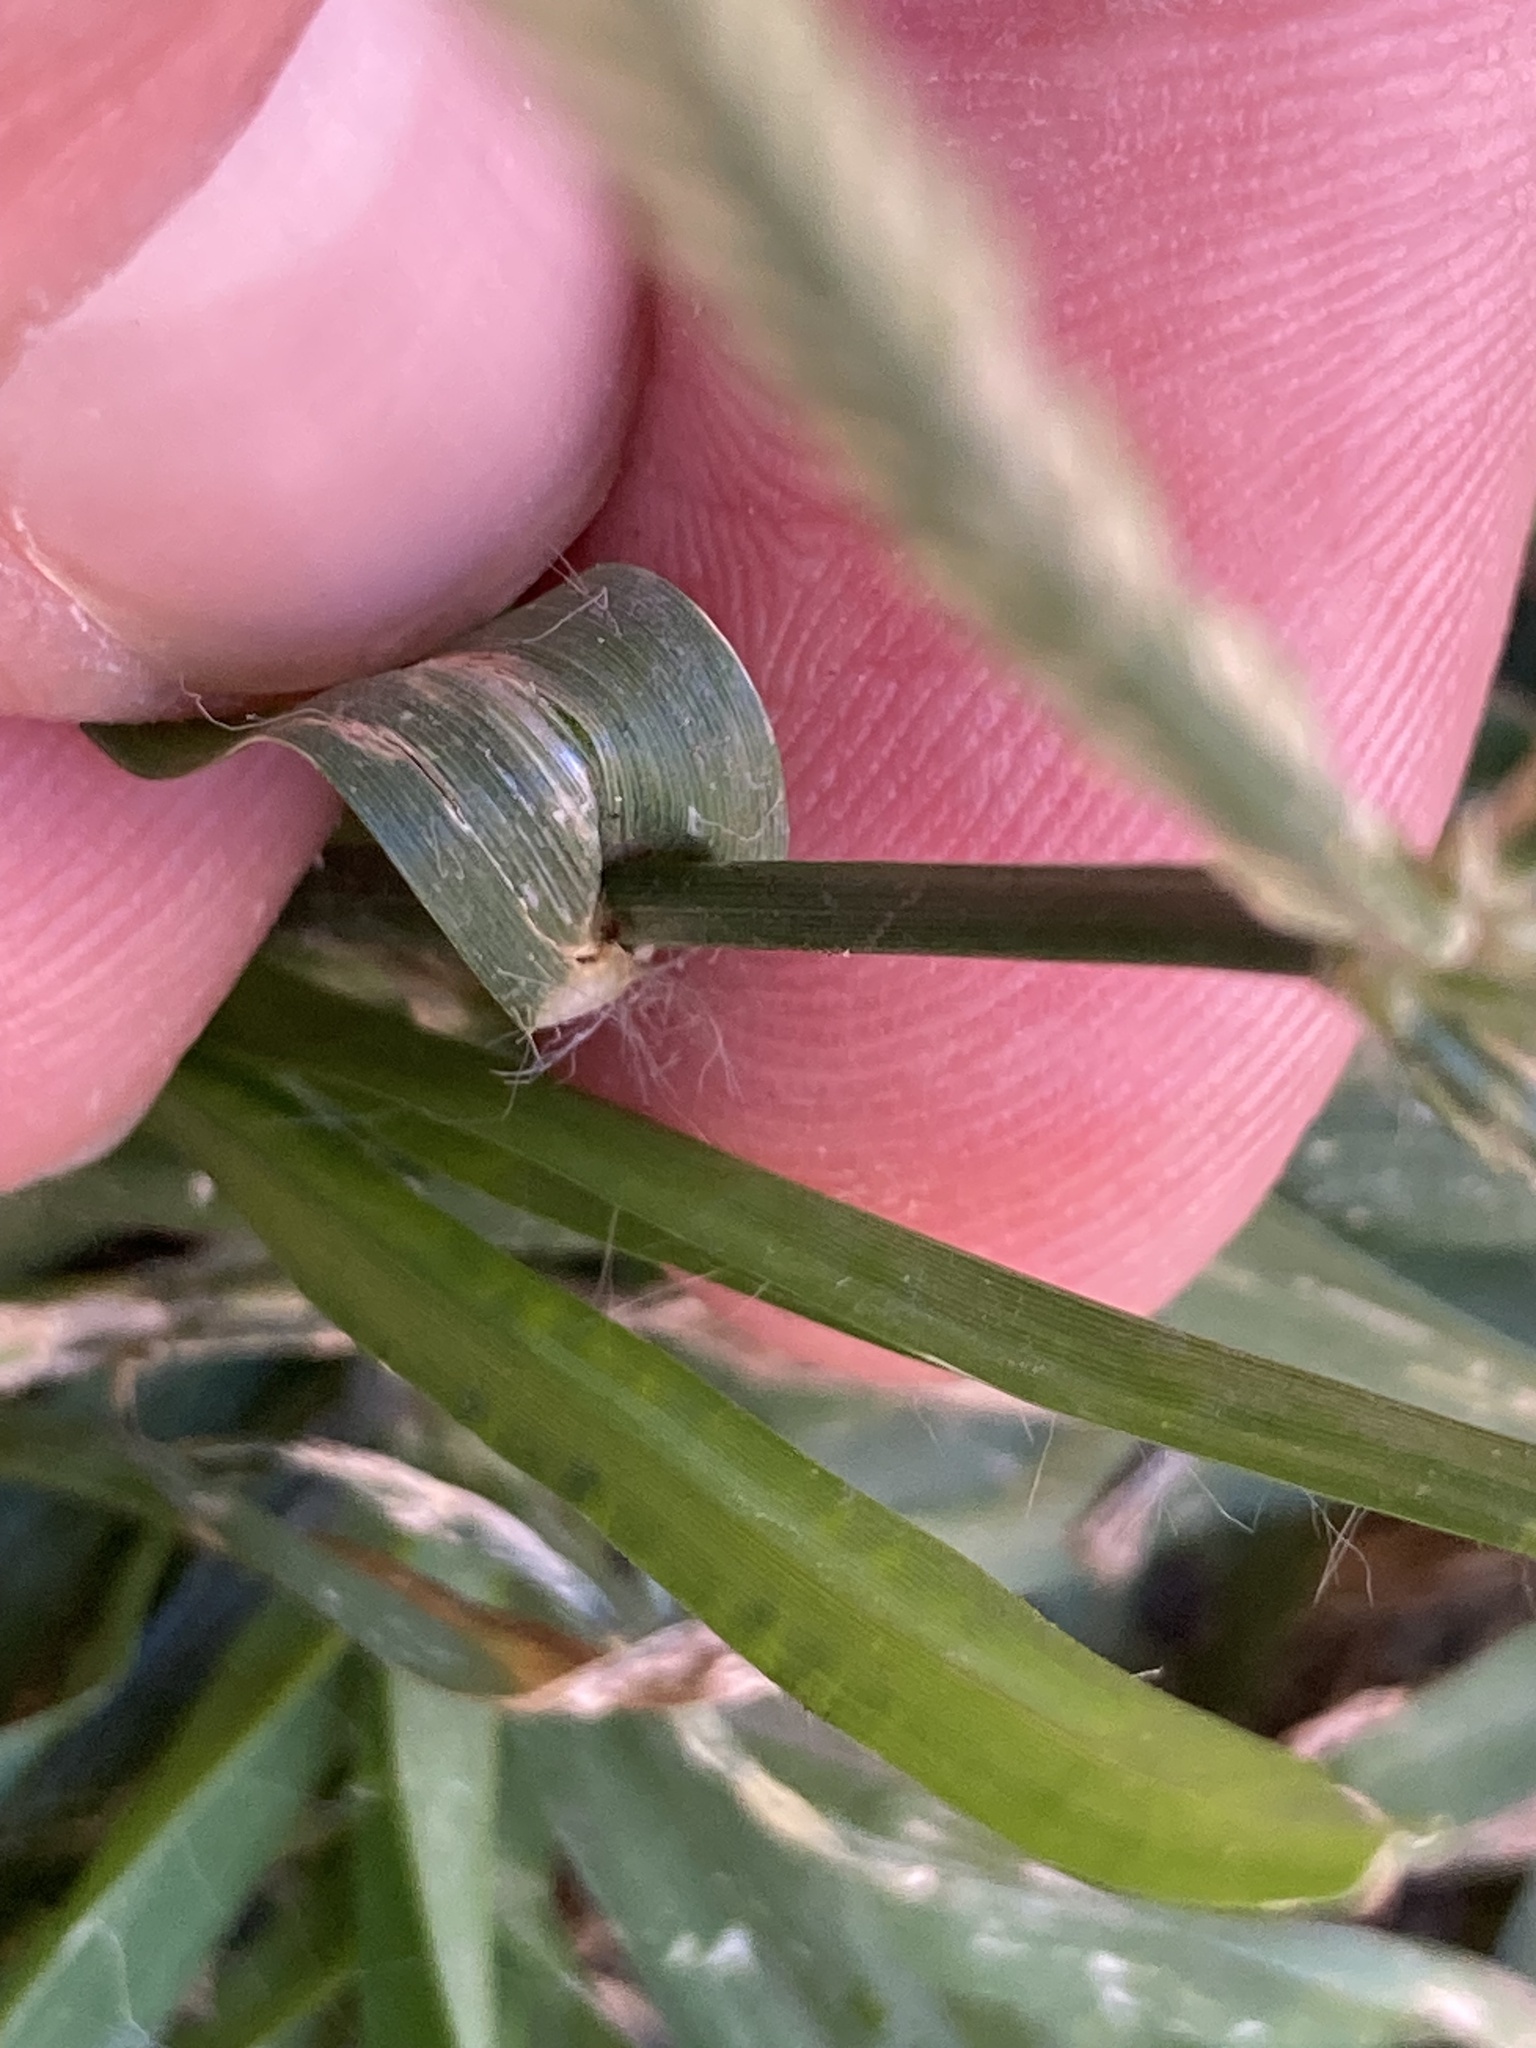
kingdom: Plantae
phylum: Tracheophyta
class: Liliopsida
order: Poales
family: Poaceae
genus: Eleusine
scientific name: Eleusine indica
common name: Yard-grass
